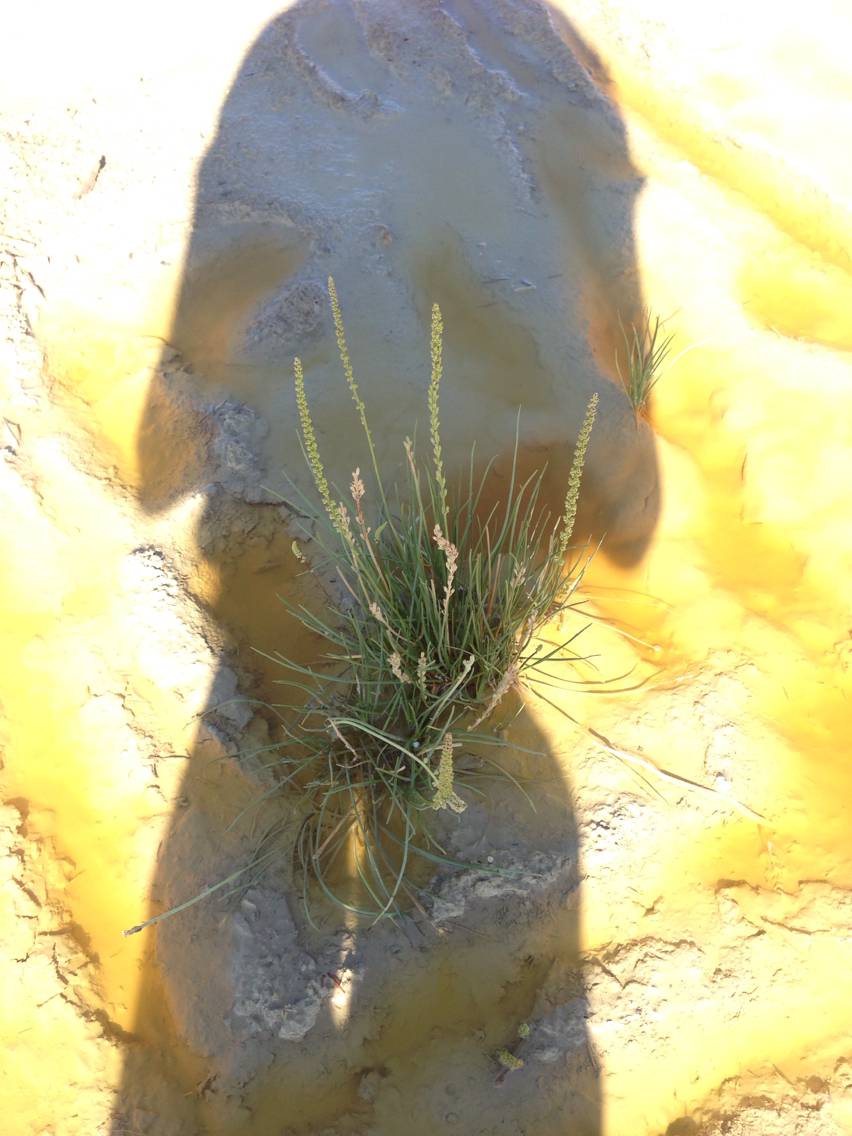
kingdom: Plantae
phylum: Tracheophyta
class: Liliopsida
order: Alismatales
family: Juncaginaceae
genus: Triglochin
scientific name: Triglochin maritima
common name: Sea arrowgrass
